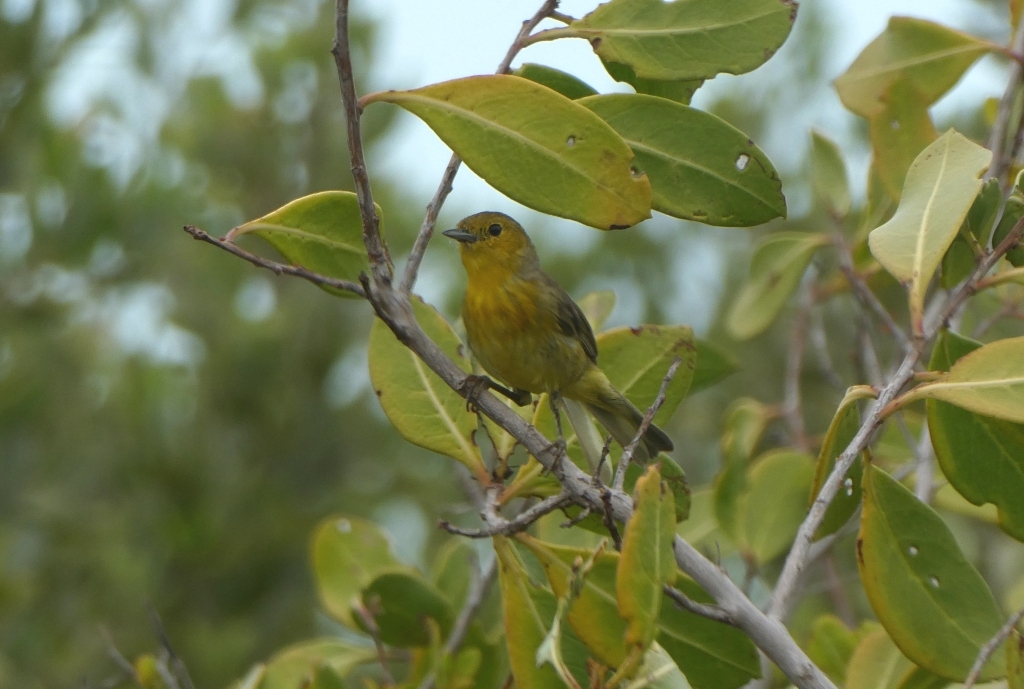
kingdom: Animalia
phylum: Chordata
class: Aves
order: Passeriformes
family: Parulidae
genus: Setophaga
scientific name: Setophaga petechia
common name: Yellow warbler
